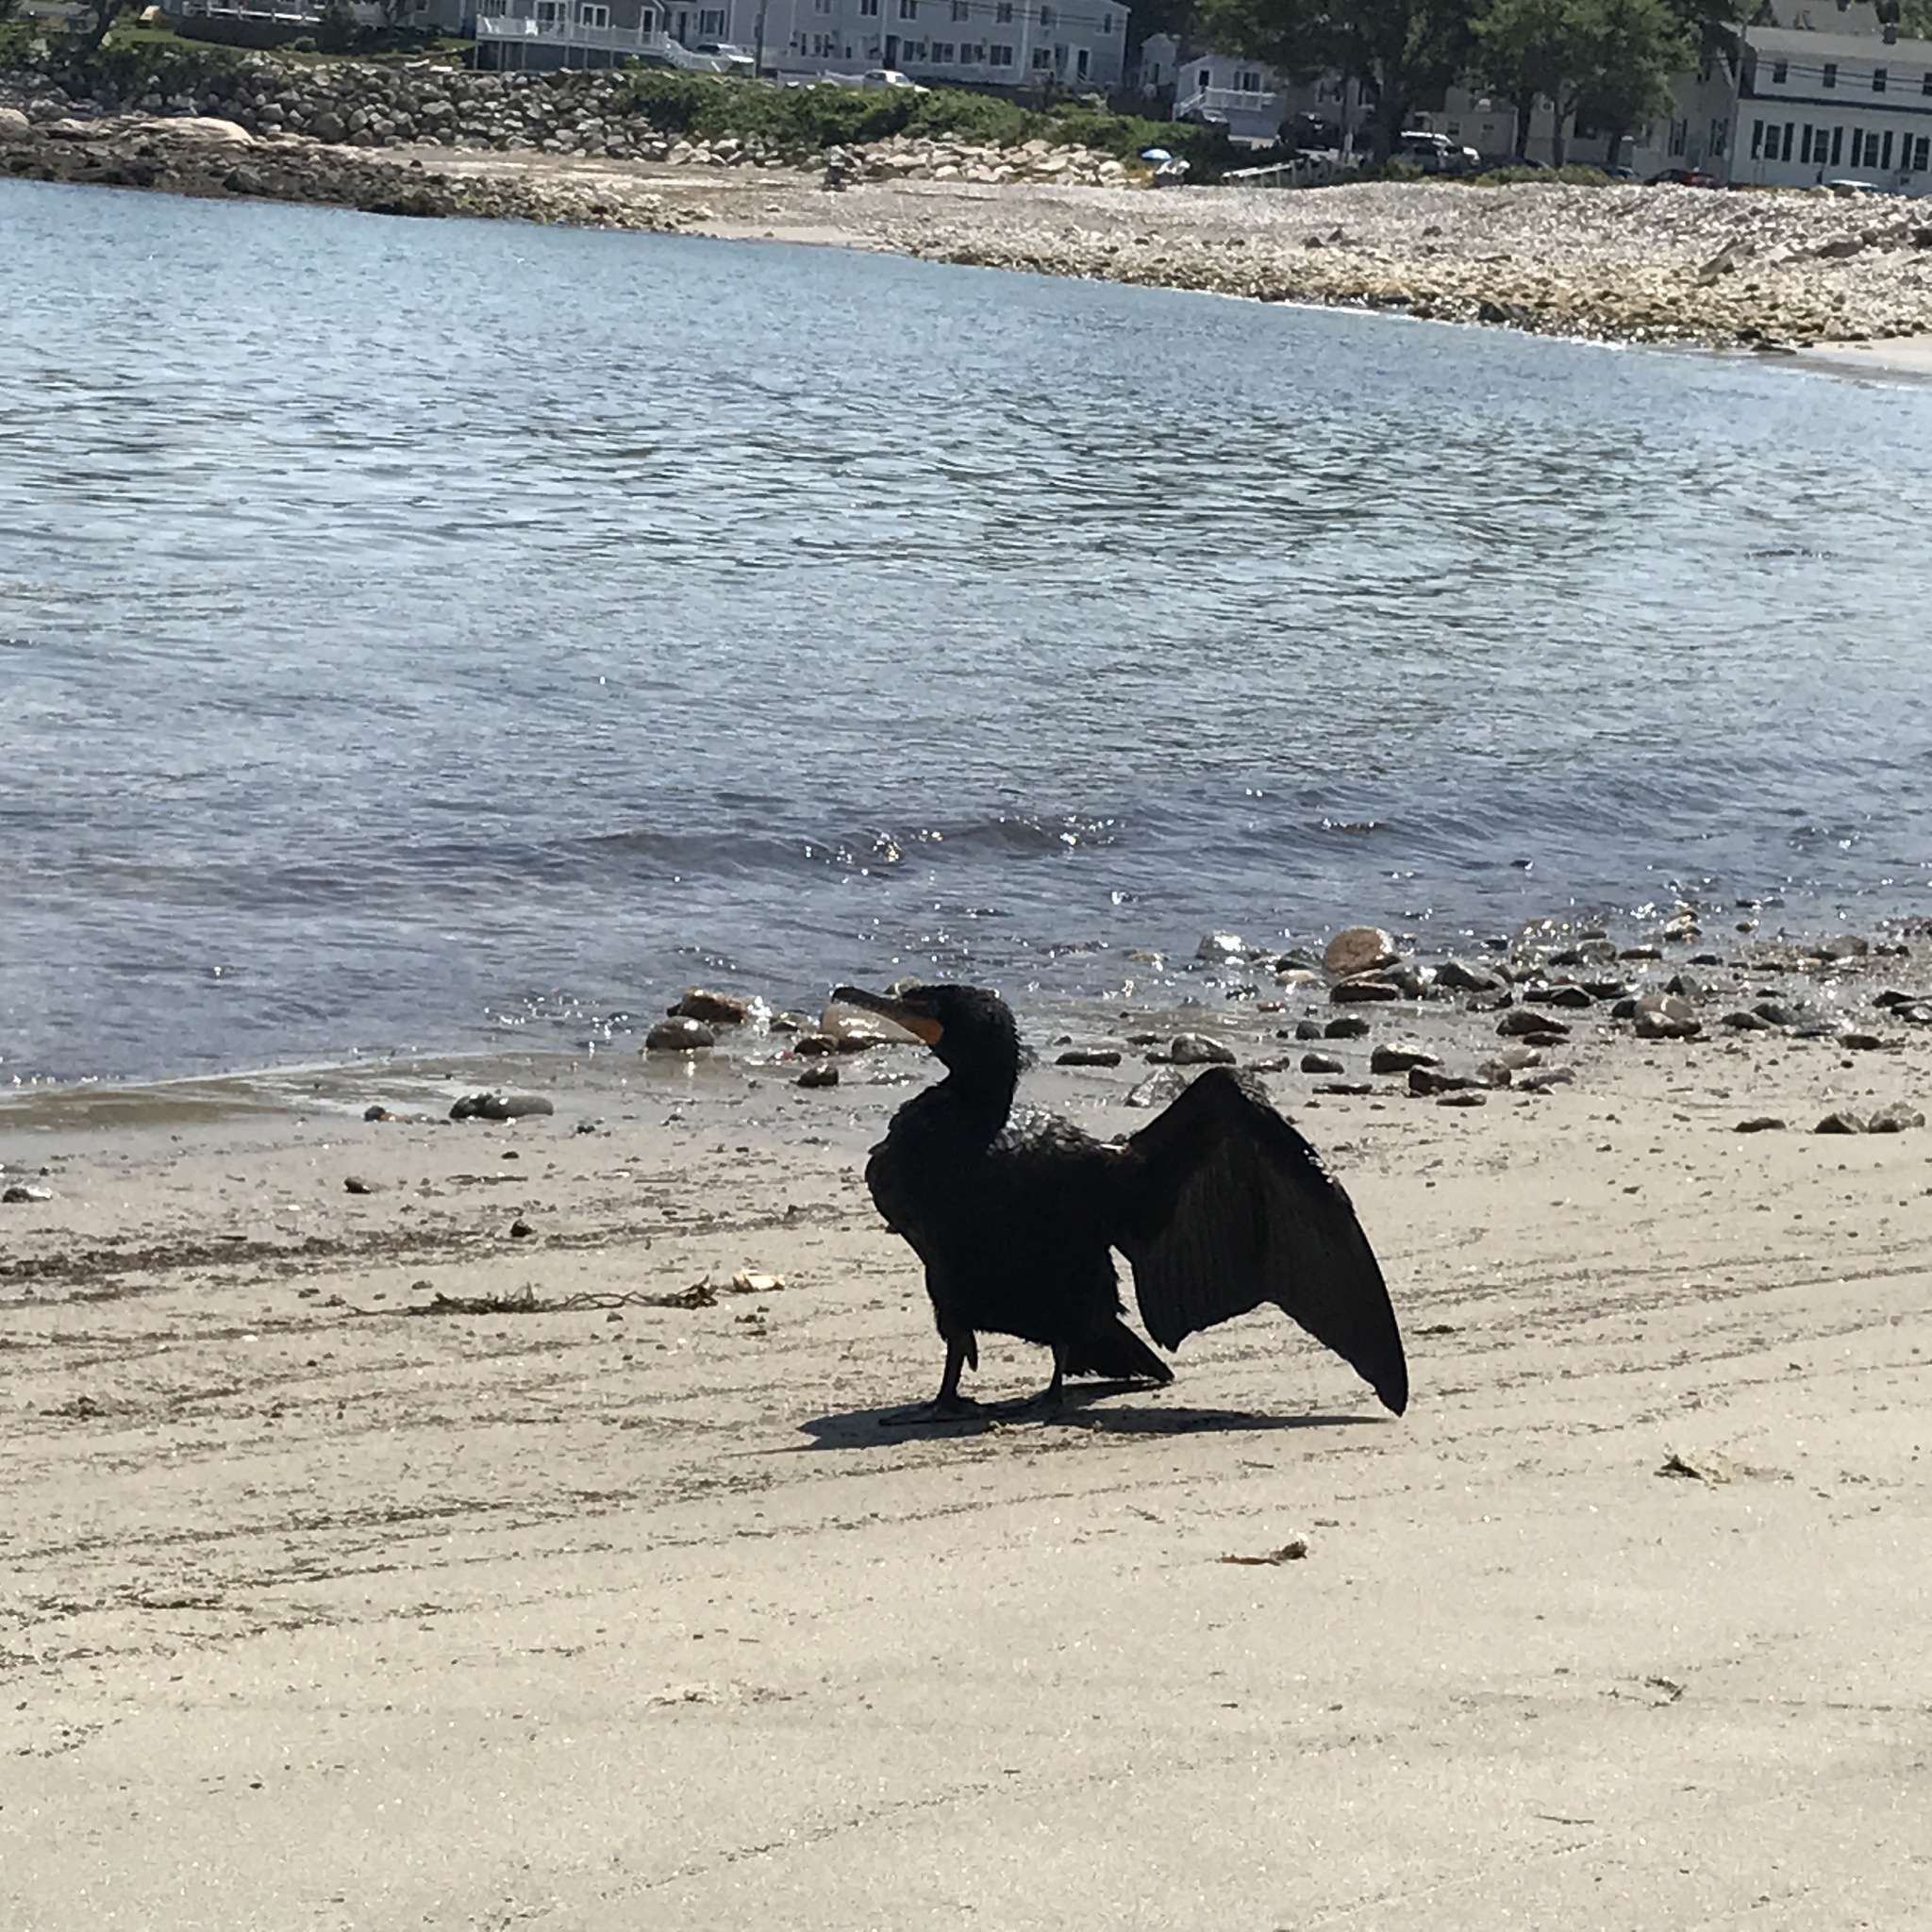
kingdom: Animalia
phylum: Chordata
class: Aves
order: Suliformes
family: Phalacrocoracidae
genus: Phalacrocorax
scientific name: Phalacrocorax auritus
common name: Double-crested cormorant
